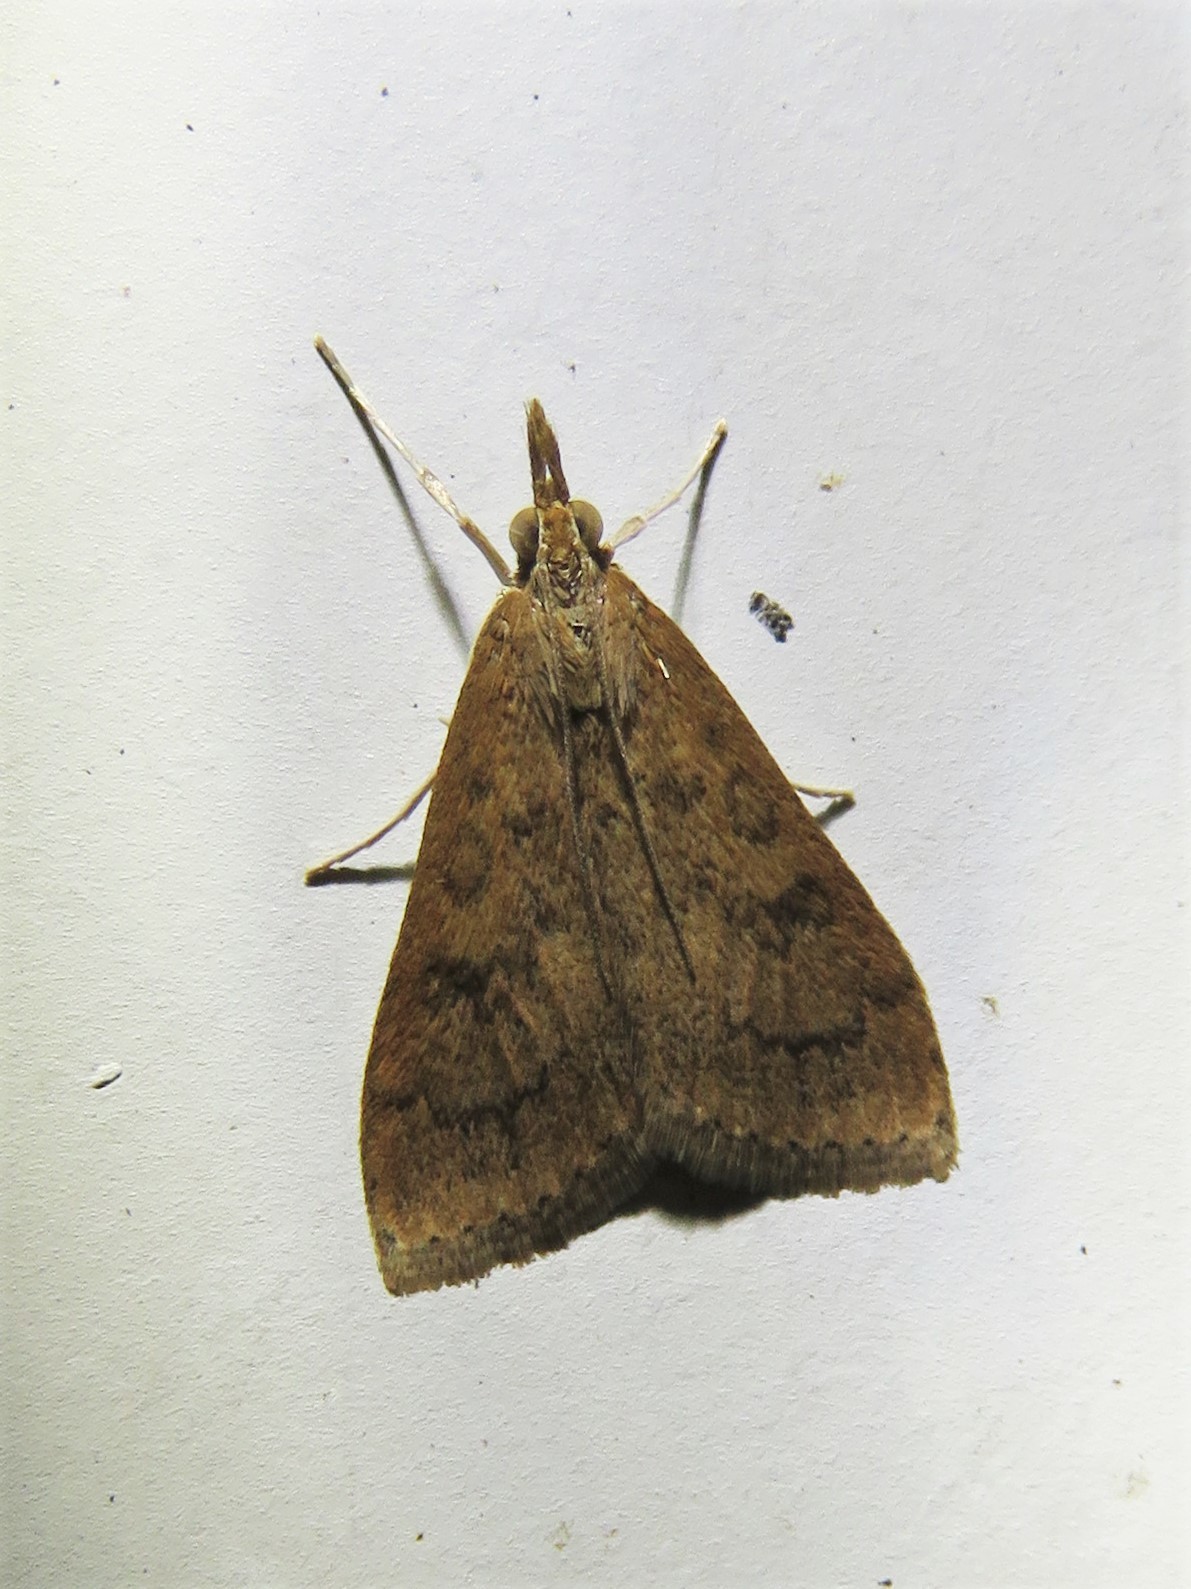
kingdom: Animalia
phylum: Arthropoda
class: Insecta
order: Lepidoptera
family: Crambidae
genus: Udea
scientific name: Udea rubigalis
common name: Celery leaftier moth
